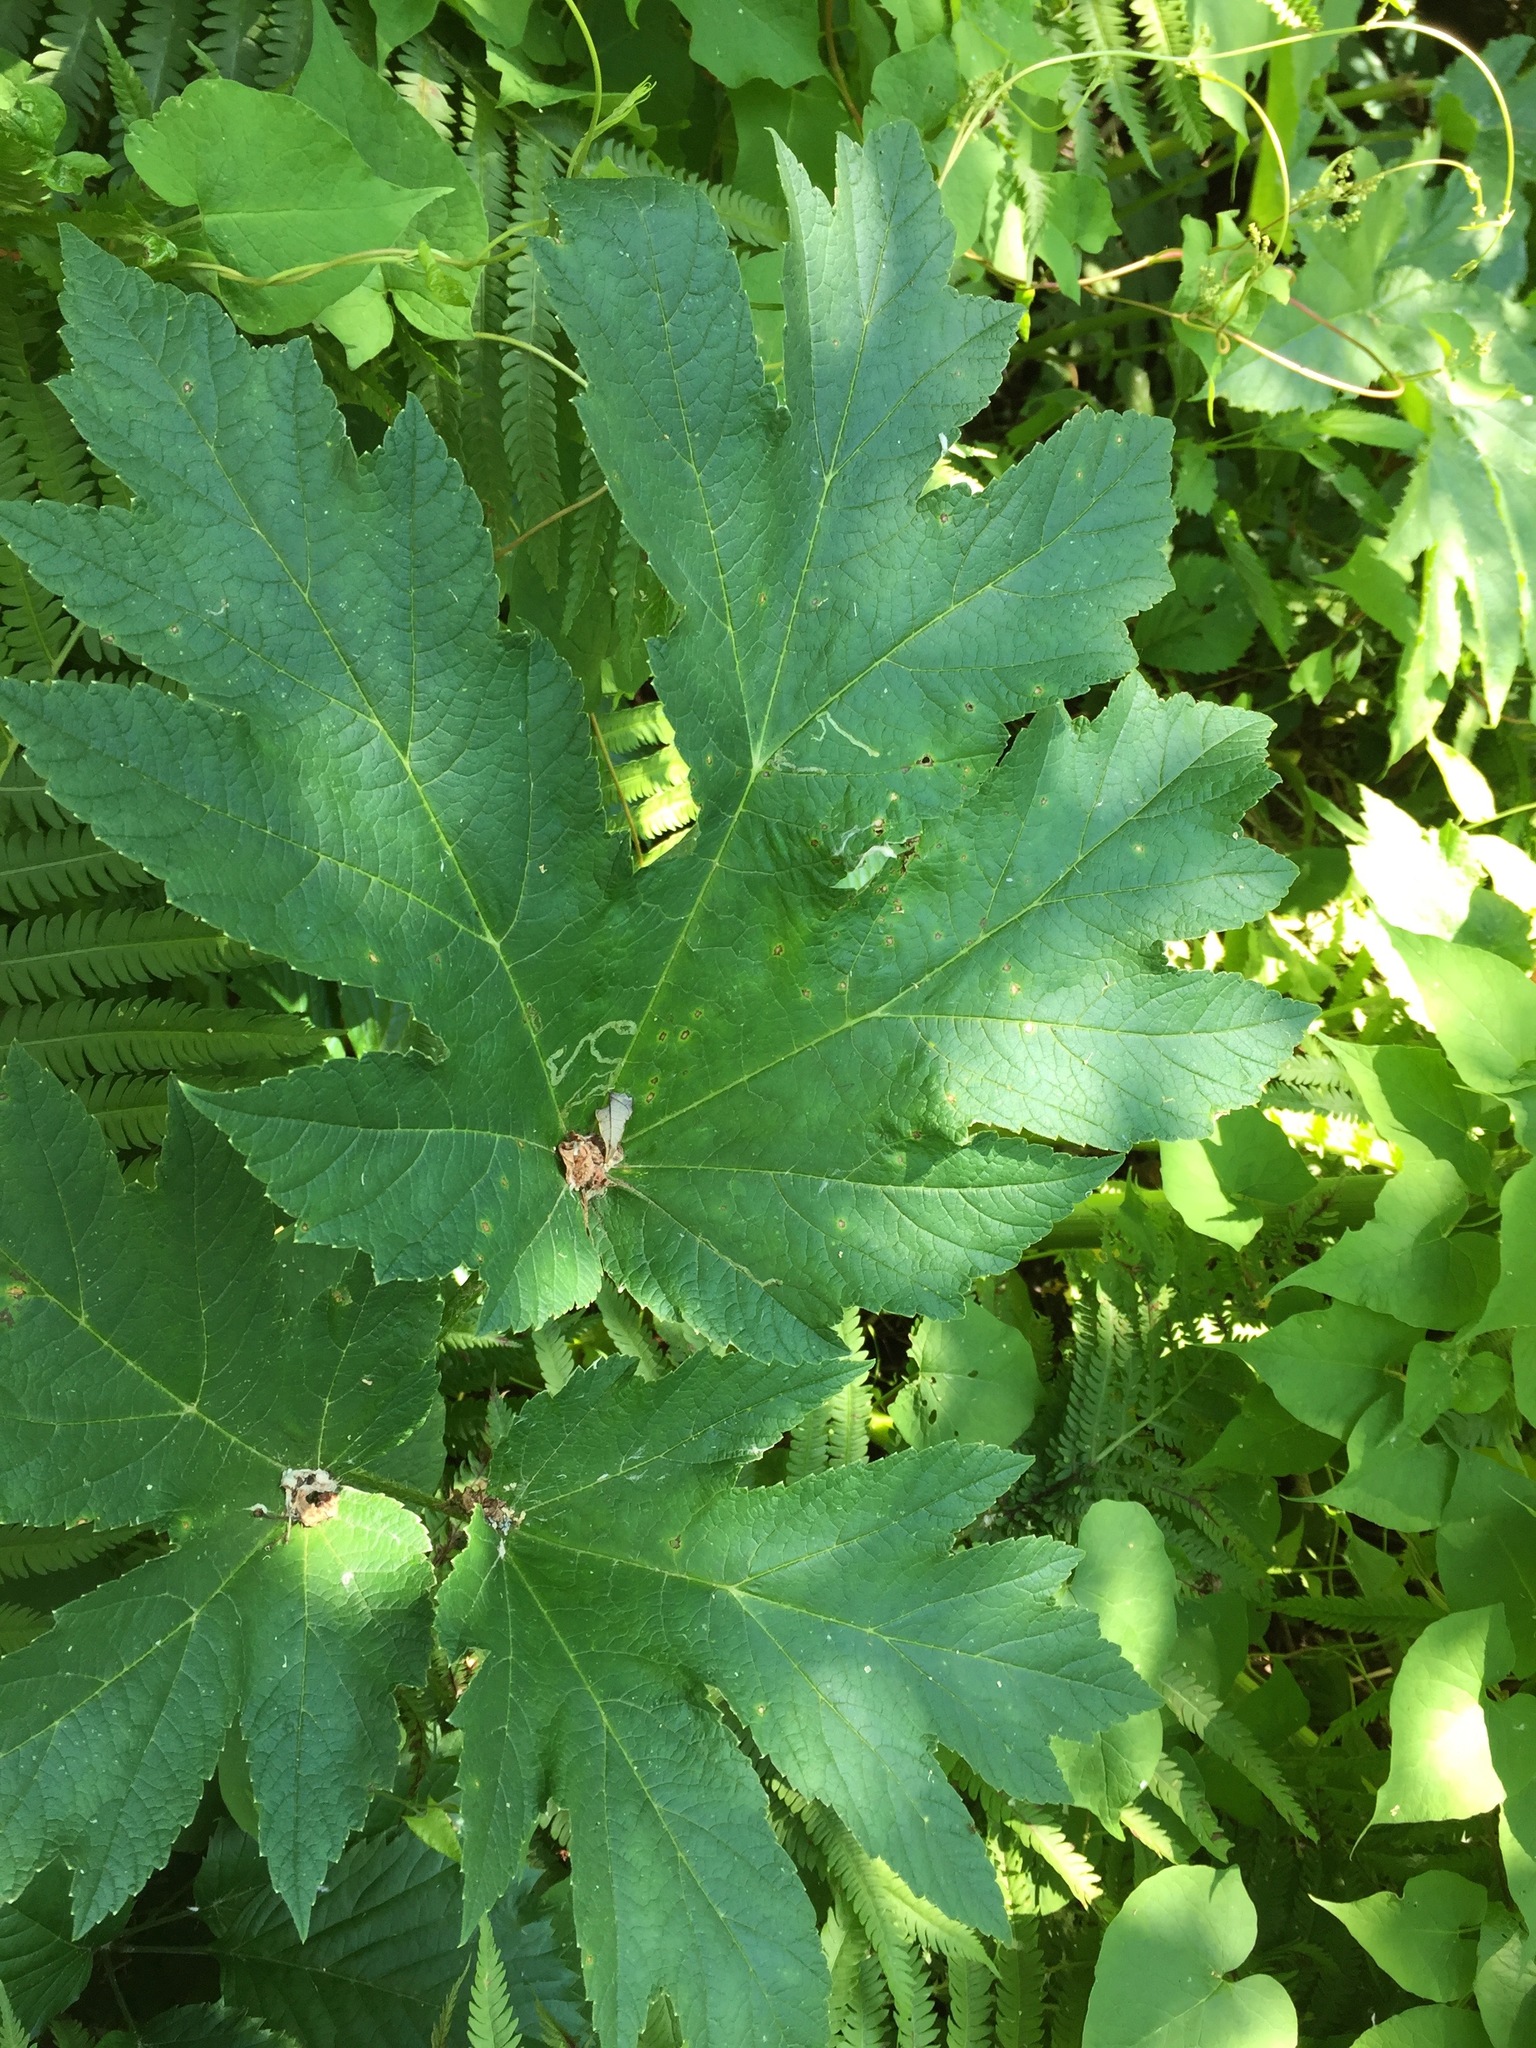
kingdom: Plantae
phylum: Tracheophyta
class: Magnoliopsida
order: Apiales
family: Apiaceae
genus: Heracleum
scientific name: Heracleum maximum
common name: American cow parsnip
